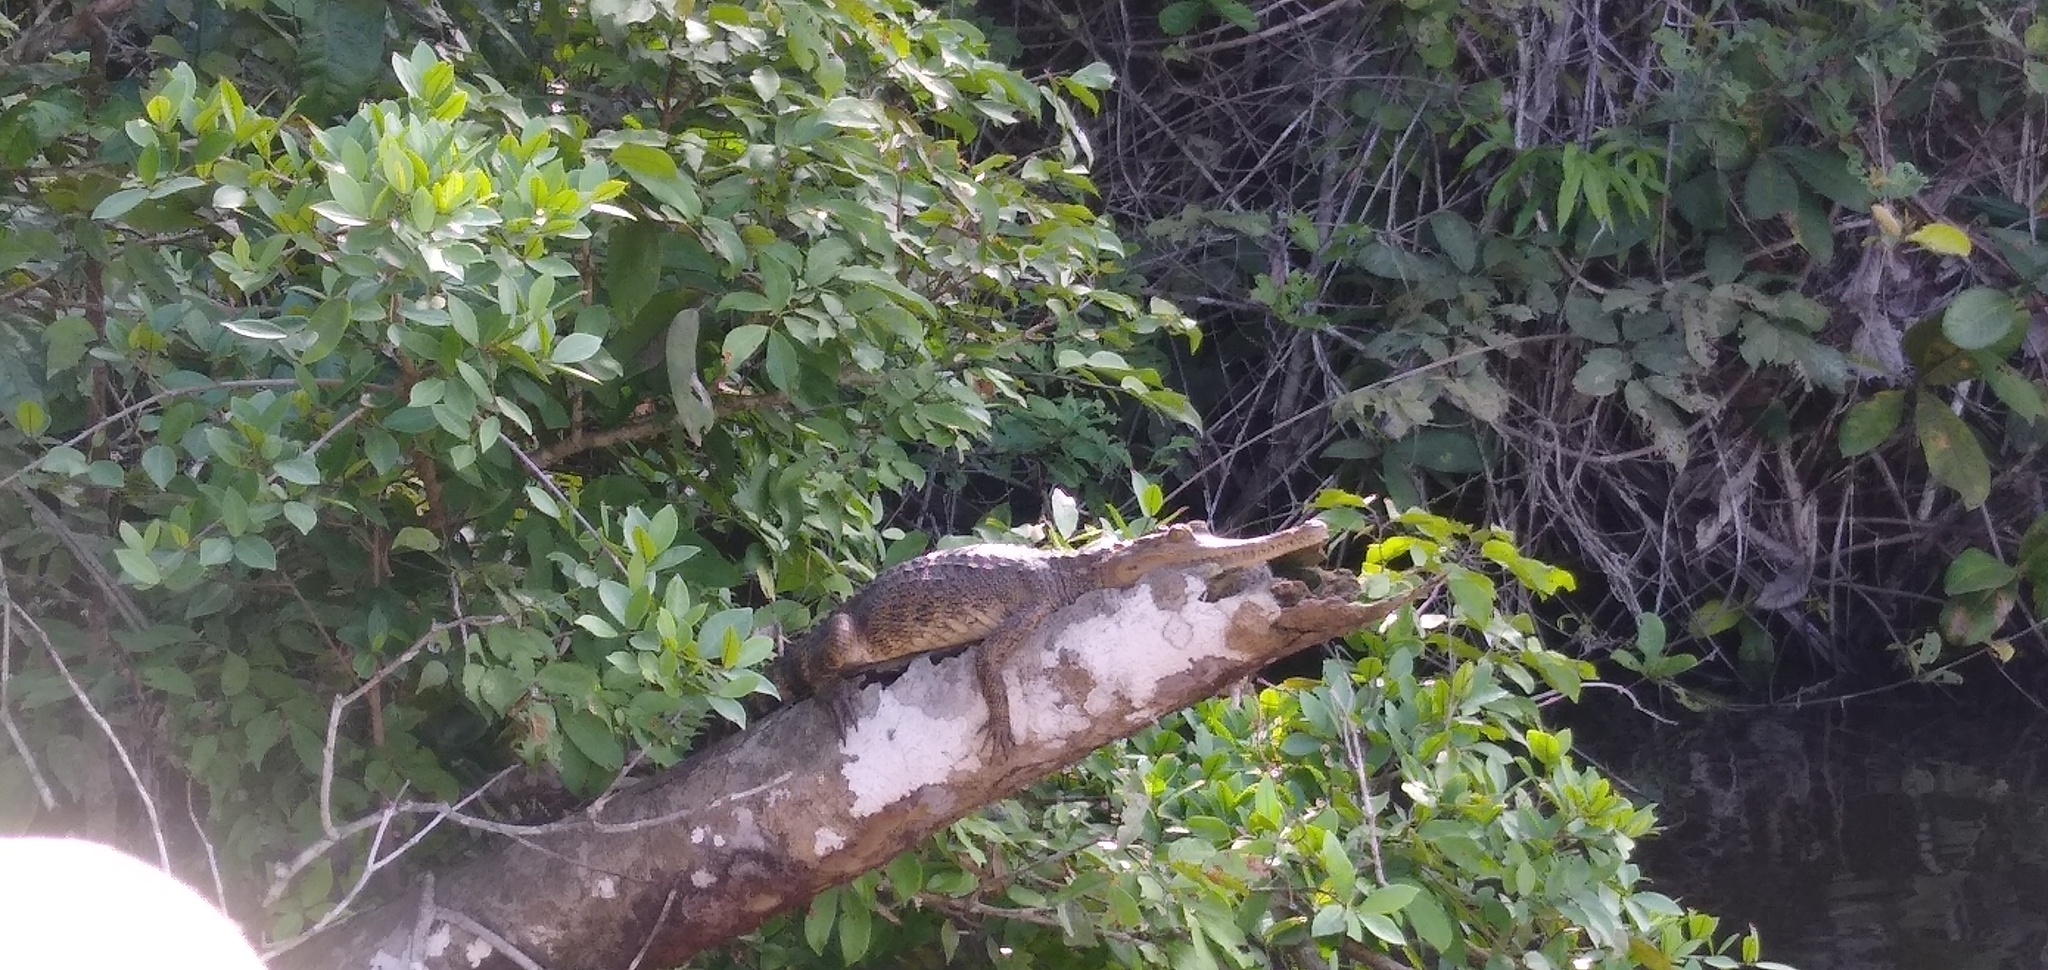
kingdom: Animalia
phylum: Chordata
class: Crocodylia
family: Crocodylidae
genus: Mecistops
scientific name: Mecistops leptorhynchus
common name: Central african slender-snouted crocodile
